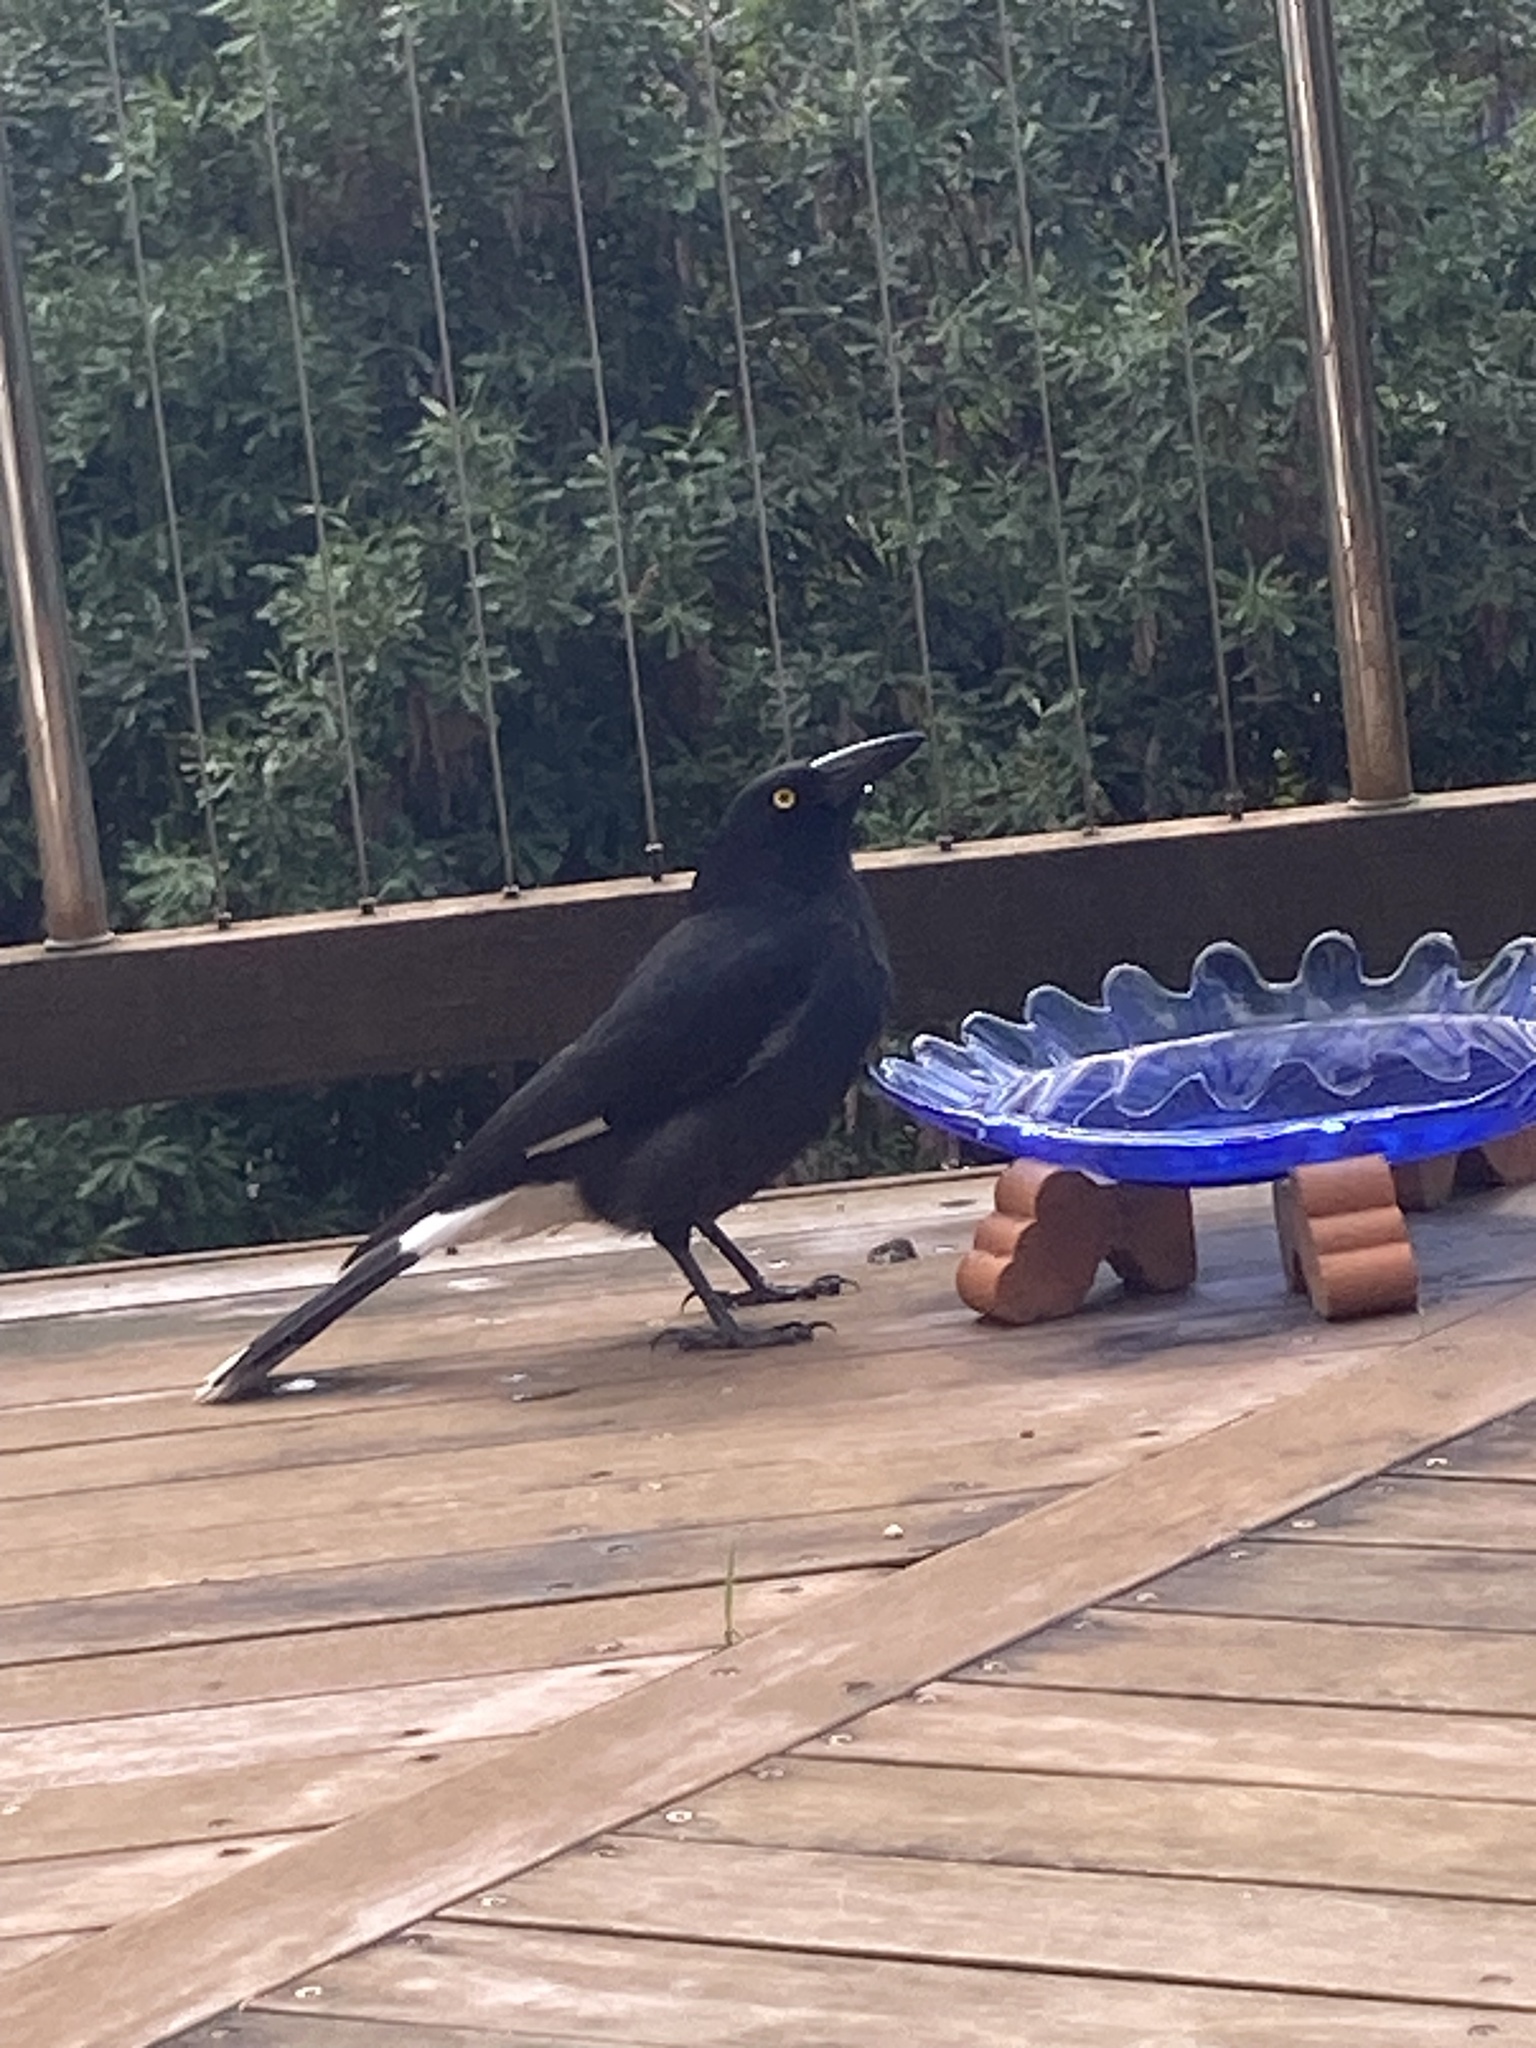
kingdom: Animalia
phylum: Chordata
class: Aves
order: Passeriformes
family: Cracticidae
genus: Strepera
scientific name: Strepera graculina
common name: Pied currawong
